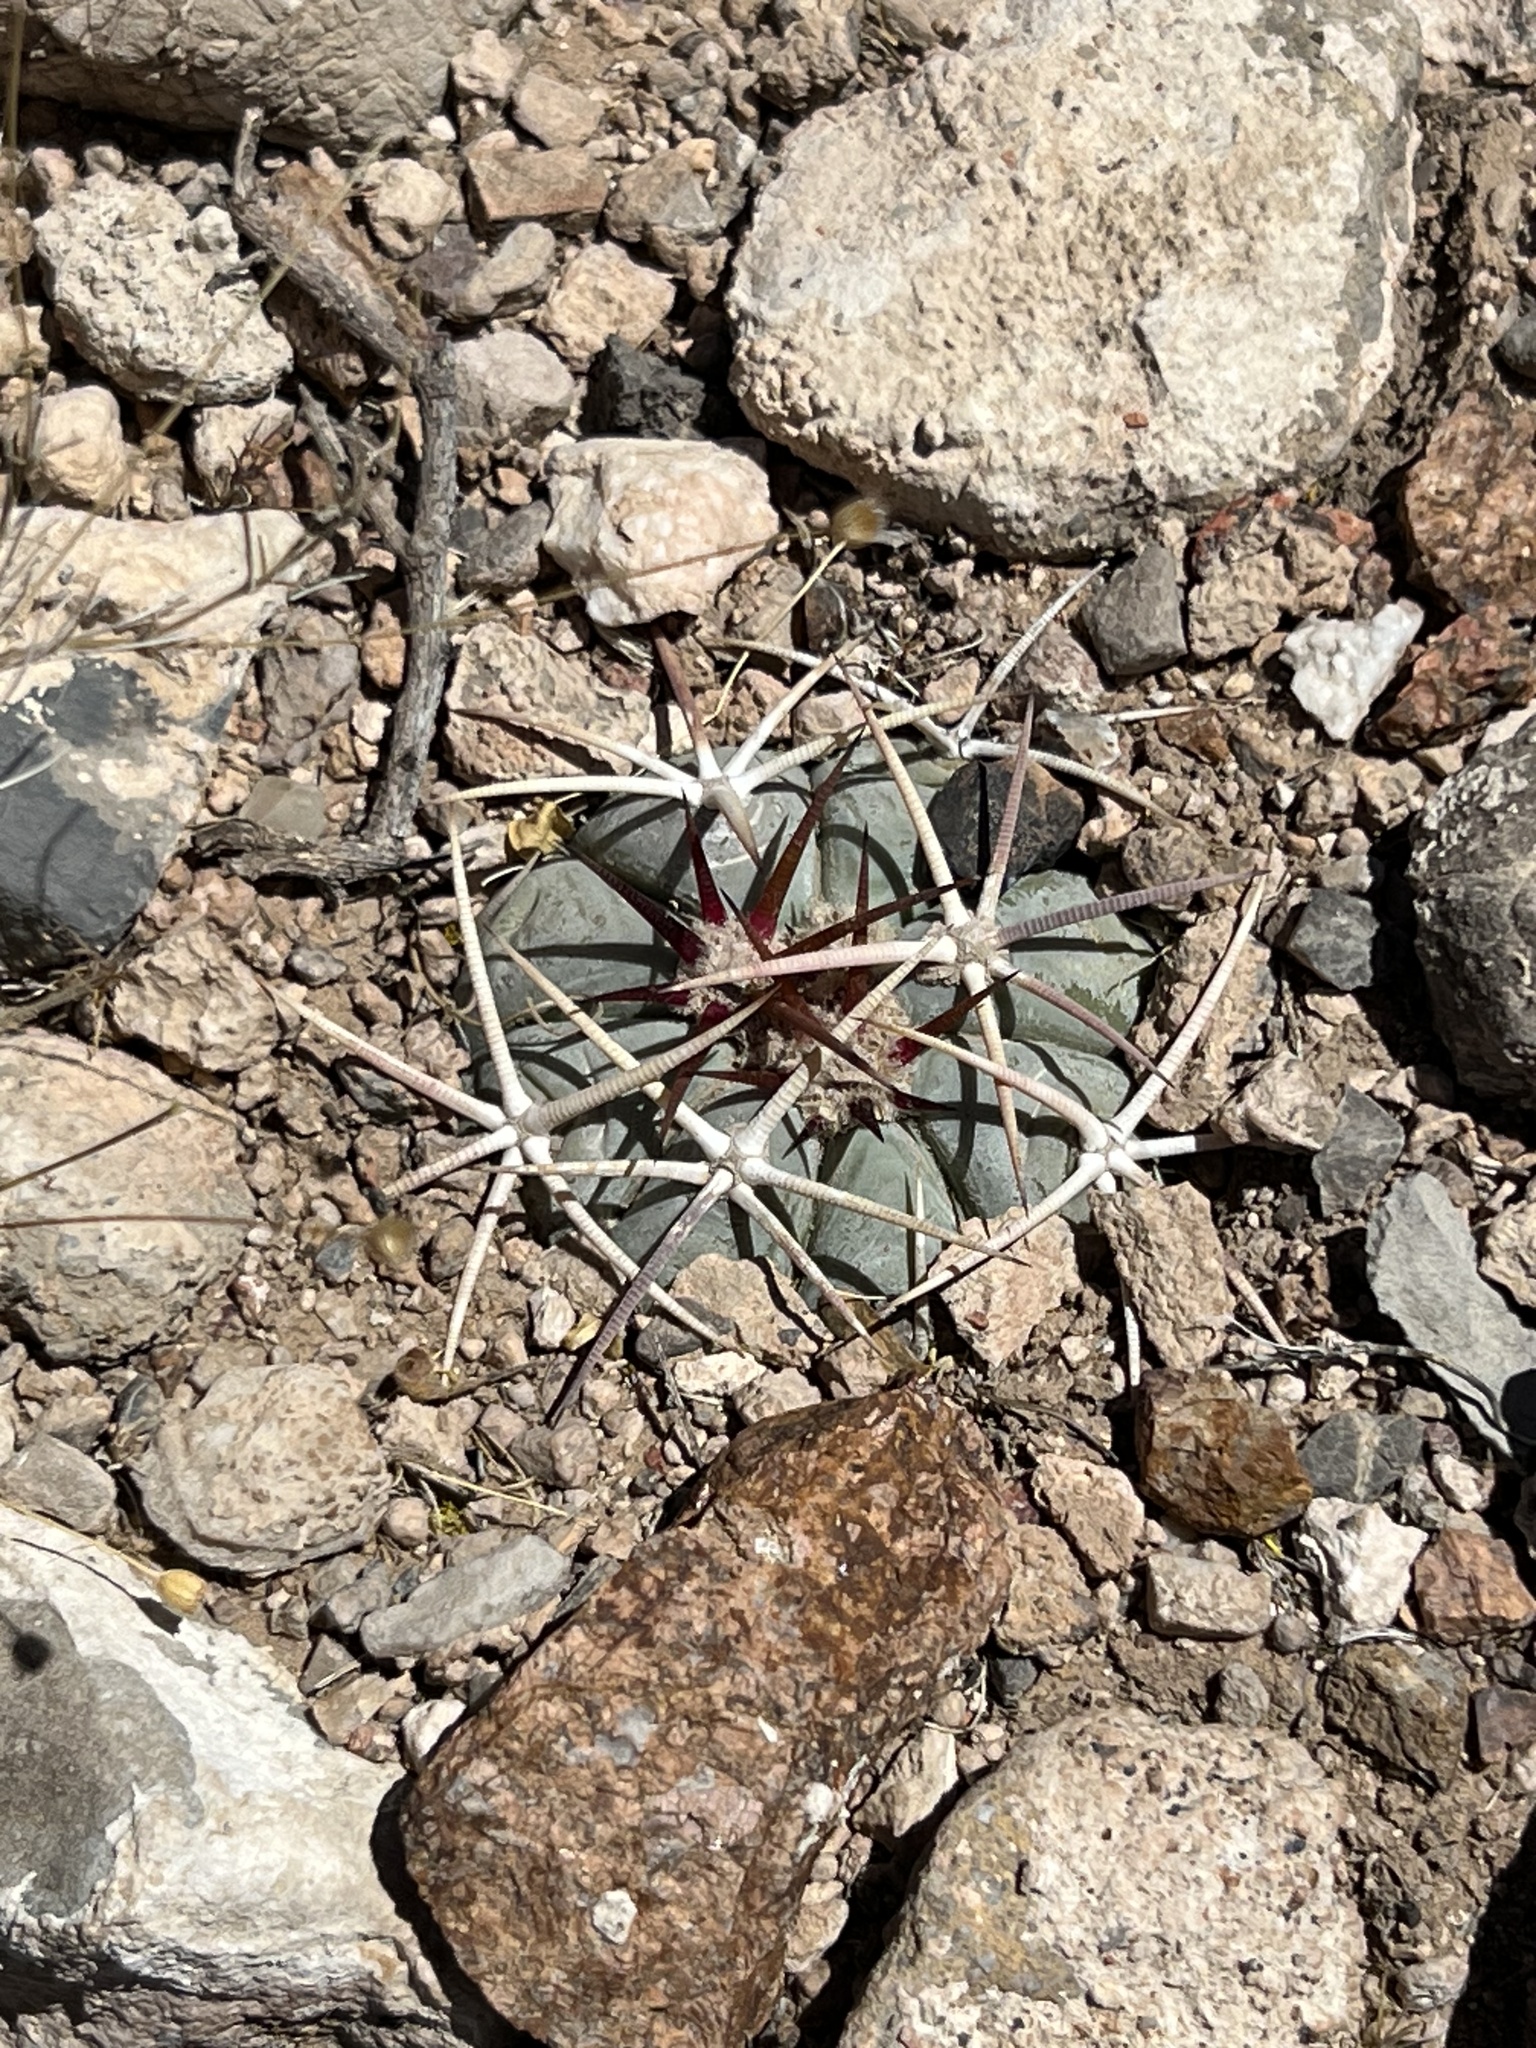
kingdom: Plantae
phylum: Tracheophyta
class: Magnoliopsida
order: Caryophyllales
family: Cactaceae
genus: Echinocactus
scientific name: Echinocactus horizonthalonius
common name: Devilshead
